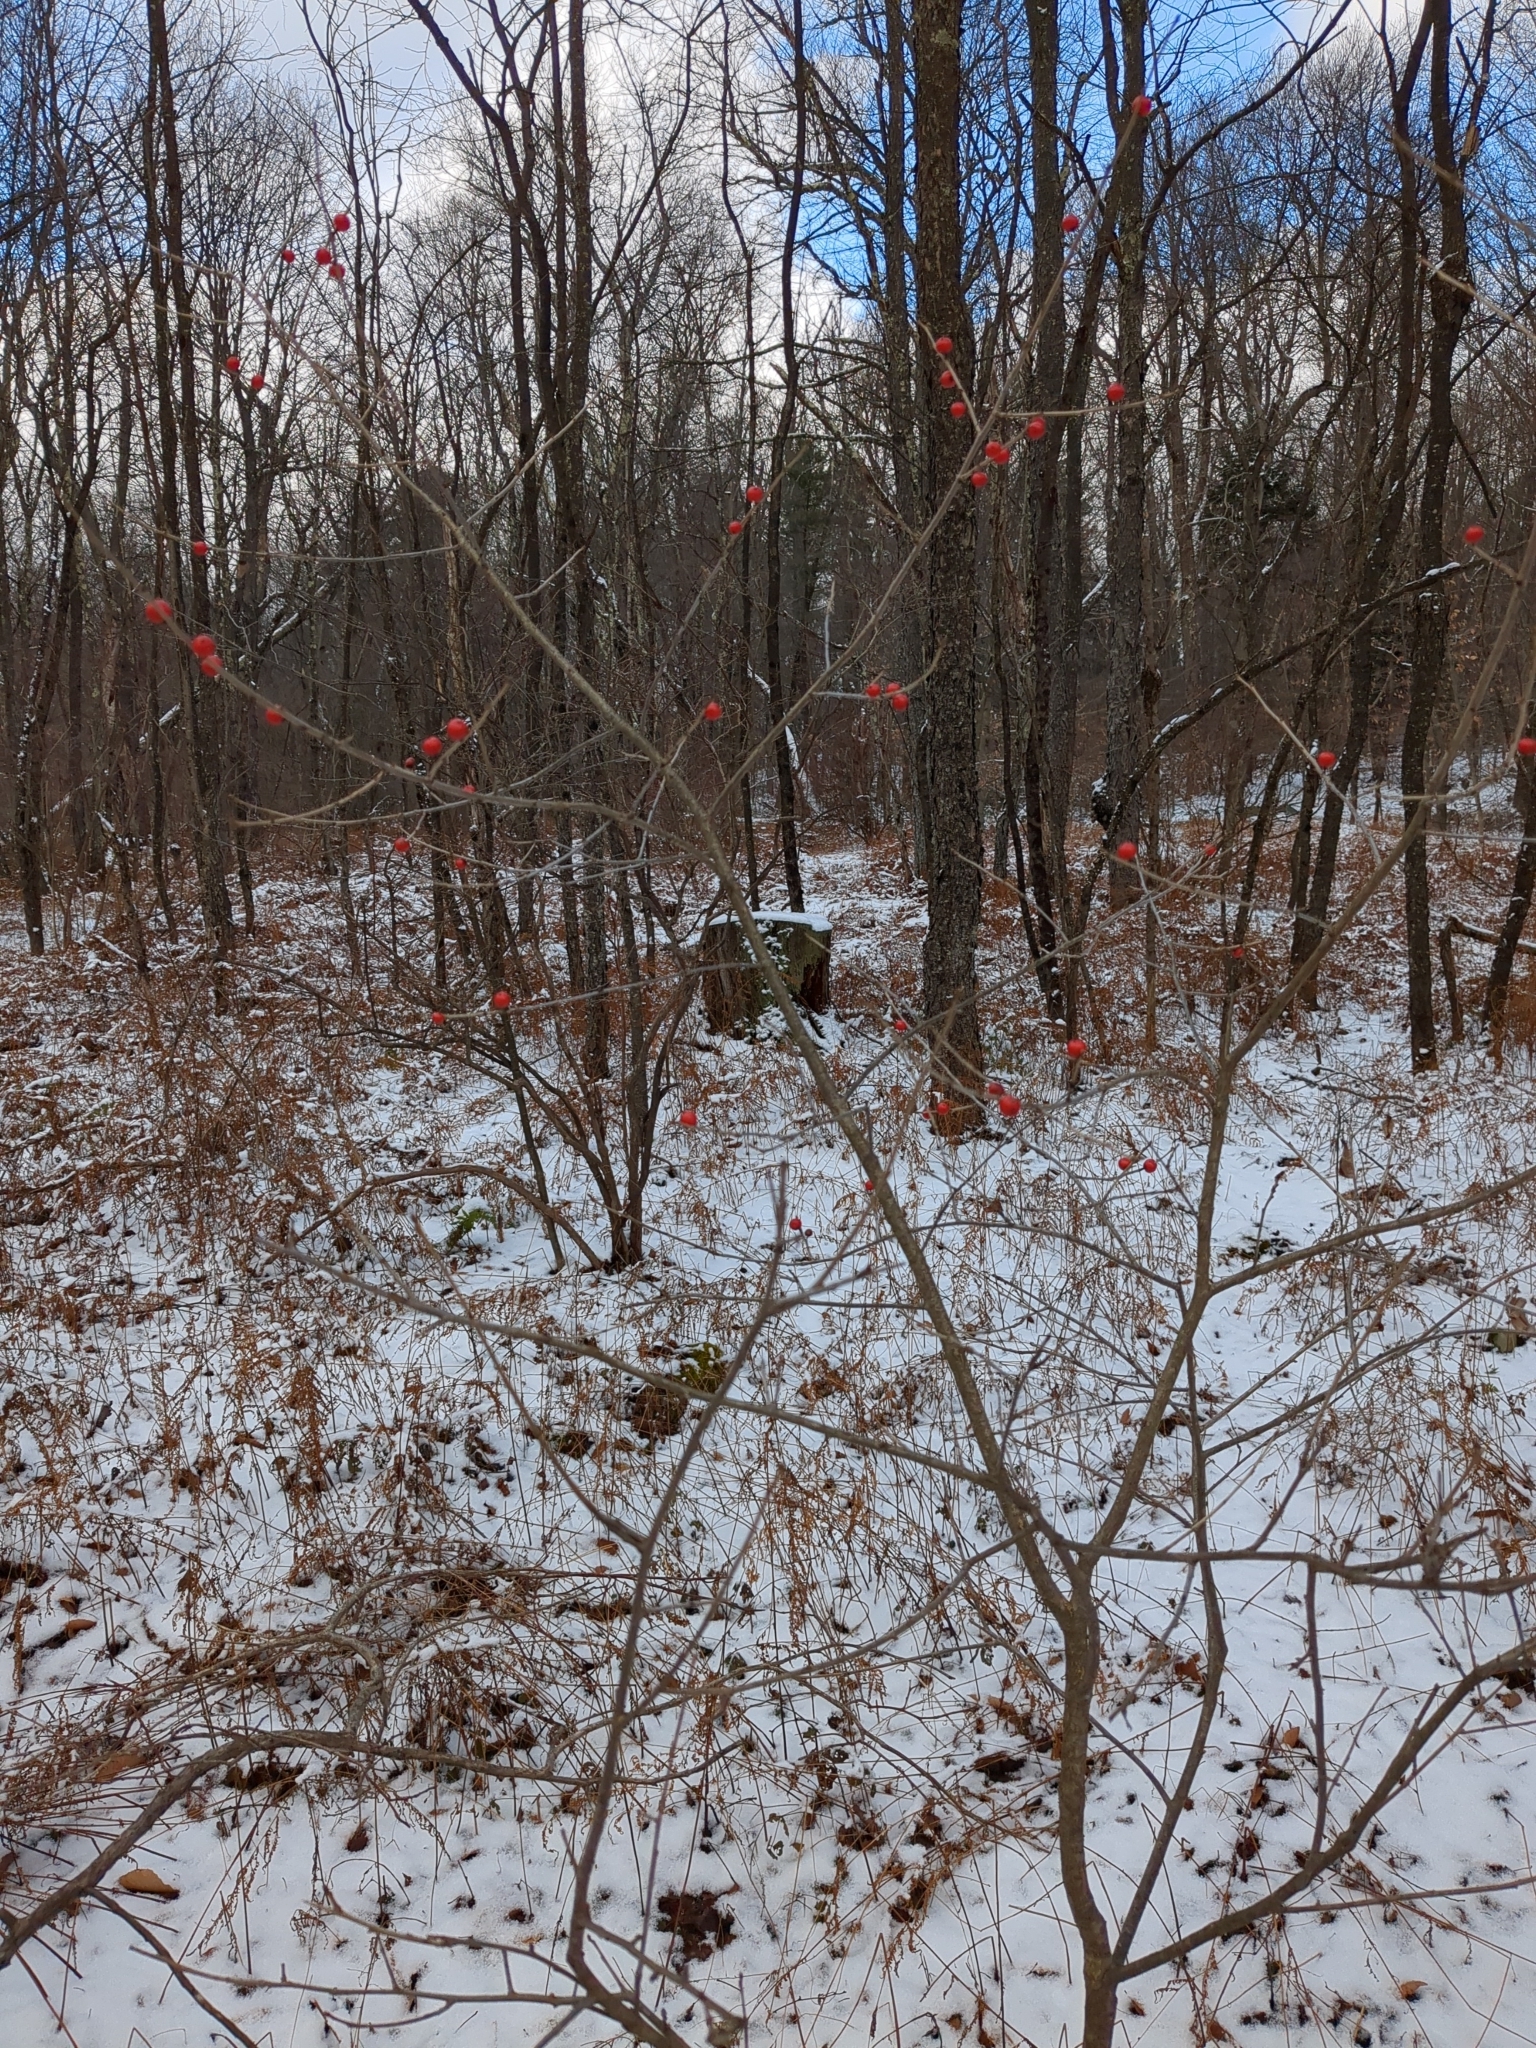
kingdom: Plantae
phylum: Tracheophyta
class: Magnoliopsida
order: Aquifoliales
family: Aquifoliaceae
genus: Ilex
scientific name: Ilex verticillata
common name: Virginia winterberry
